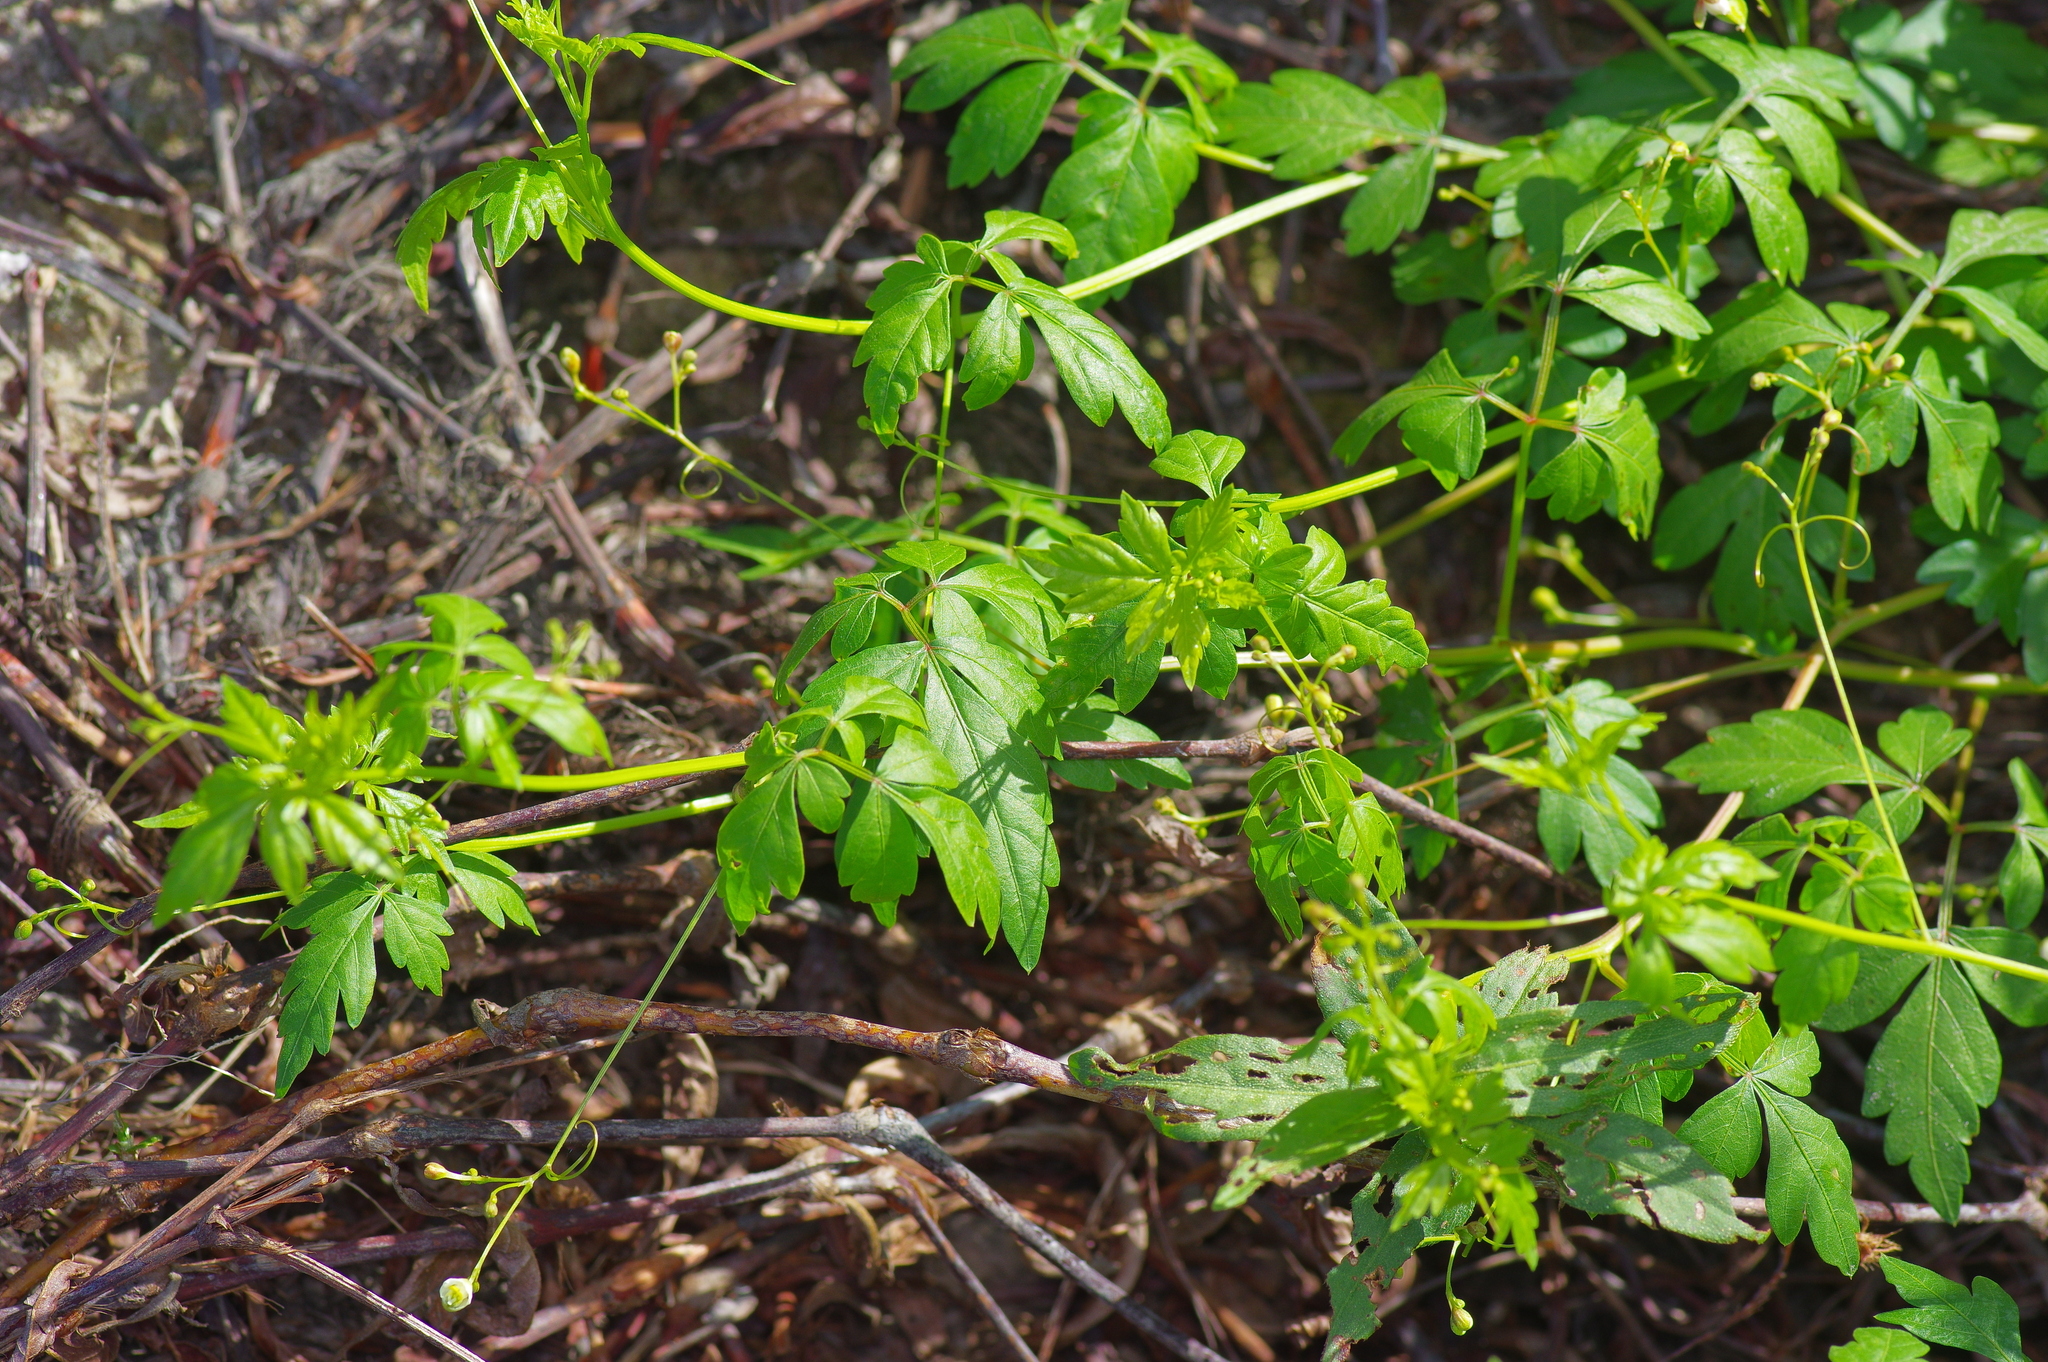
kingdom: Plantae
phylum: Tracheophyta
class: Magnoliopsida
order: Sapindales
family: Sapindaceae
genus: Cardiospermum
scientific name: Cardiospermum halicacabum
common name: Balloon vine
